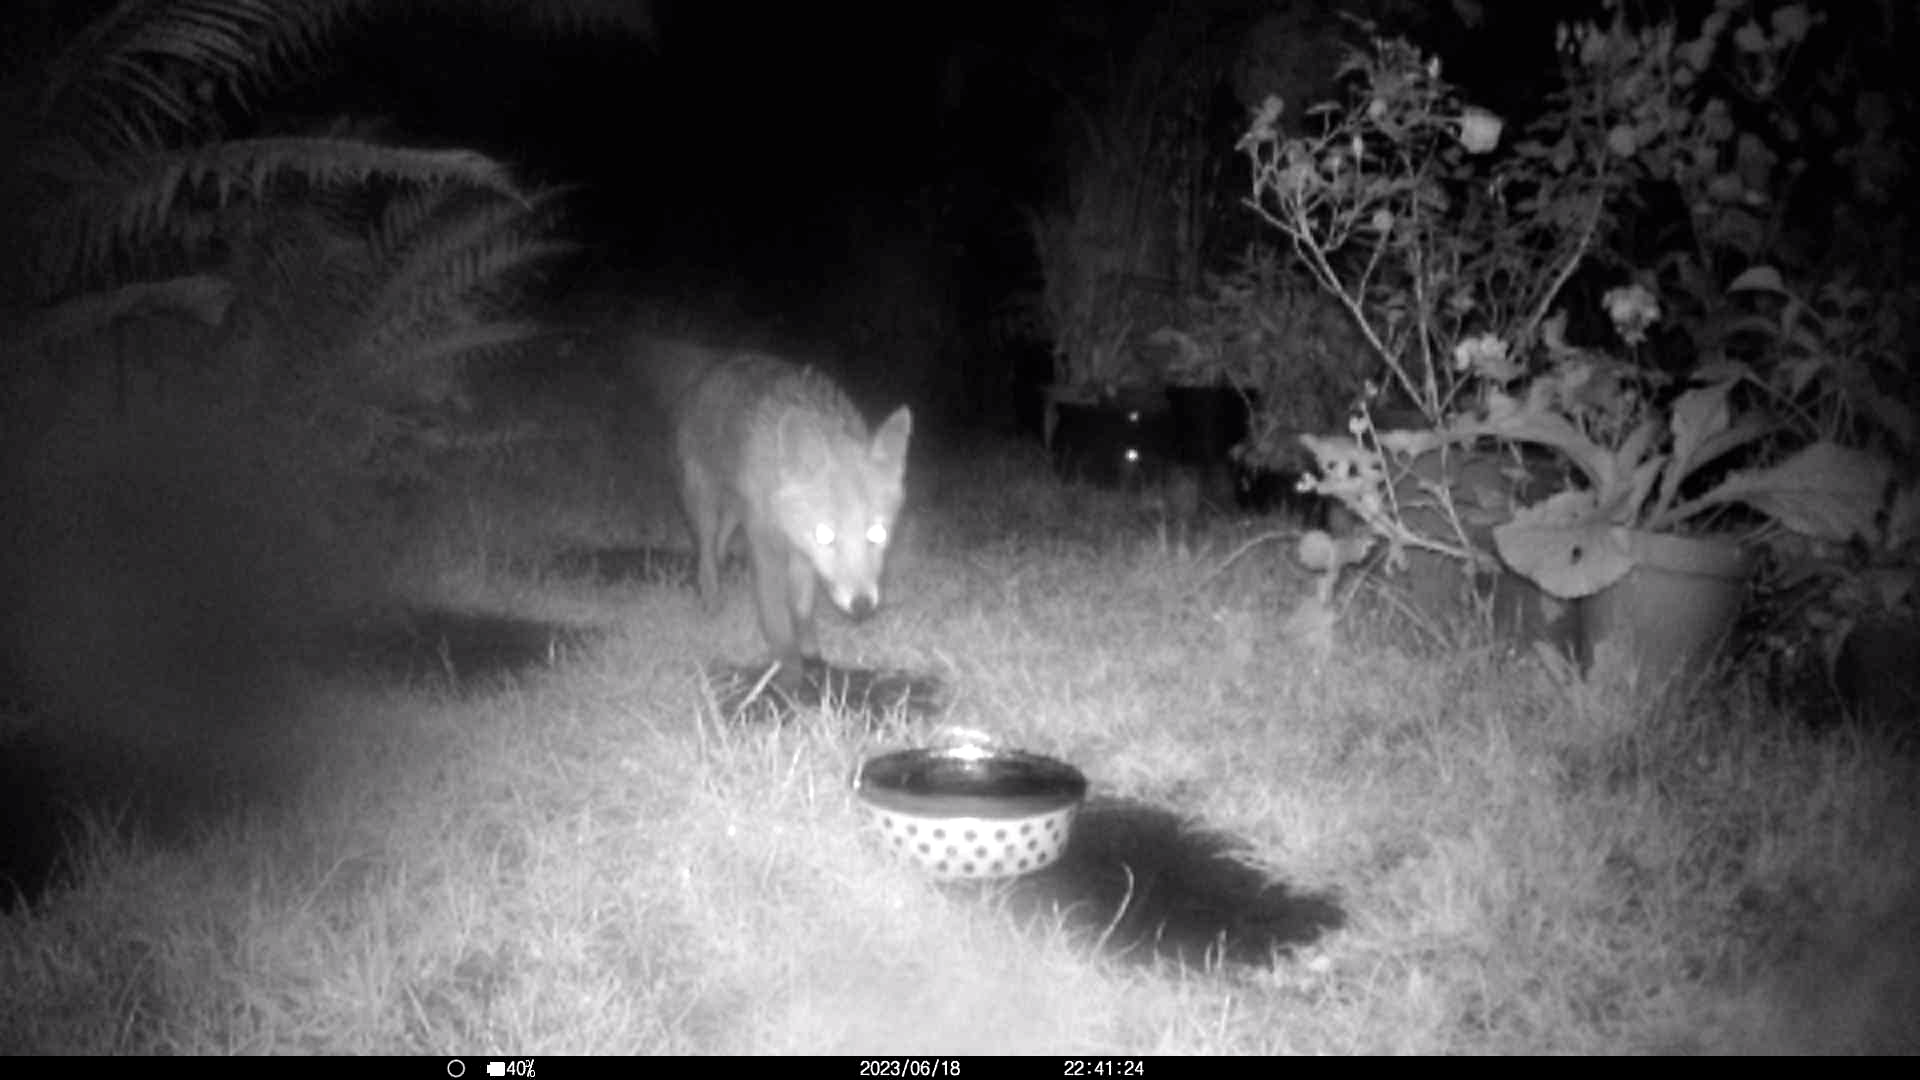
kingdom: Animalia
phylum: Chordata
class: Mammalia
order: Carnivora
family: Canidae
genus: Vulpes
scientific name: Vulpes vulpes
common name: Red fox
